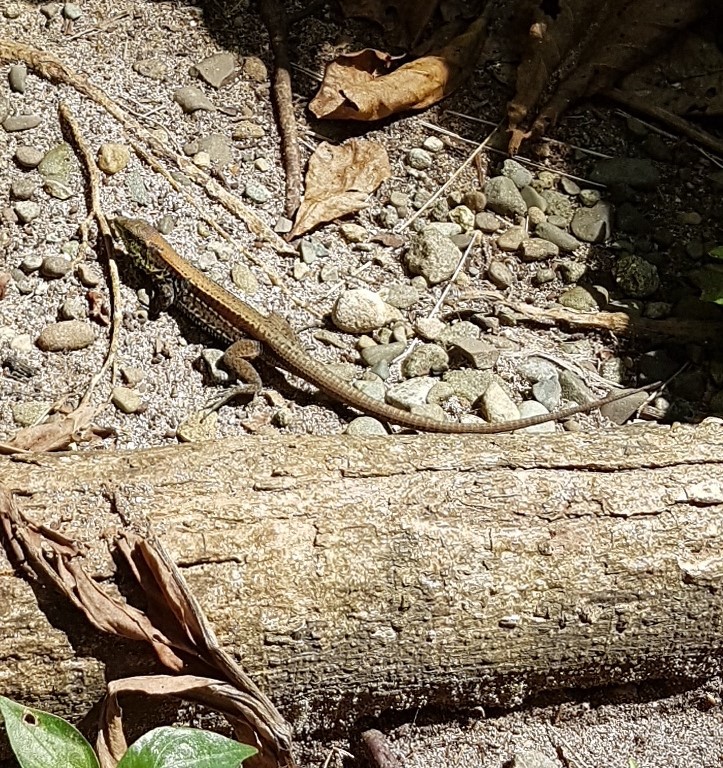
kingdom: Animalia
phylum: Chordata
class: Squamata
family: Teiidae
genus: Holcosus
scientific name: Holcosus quadrilineatus
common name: Four-lined ameiva
